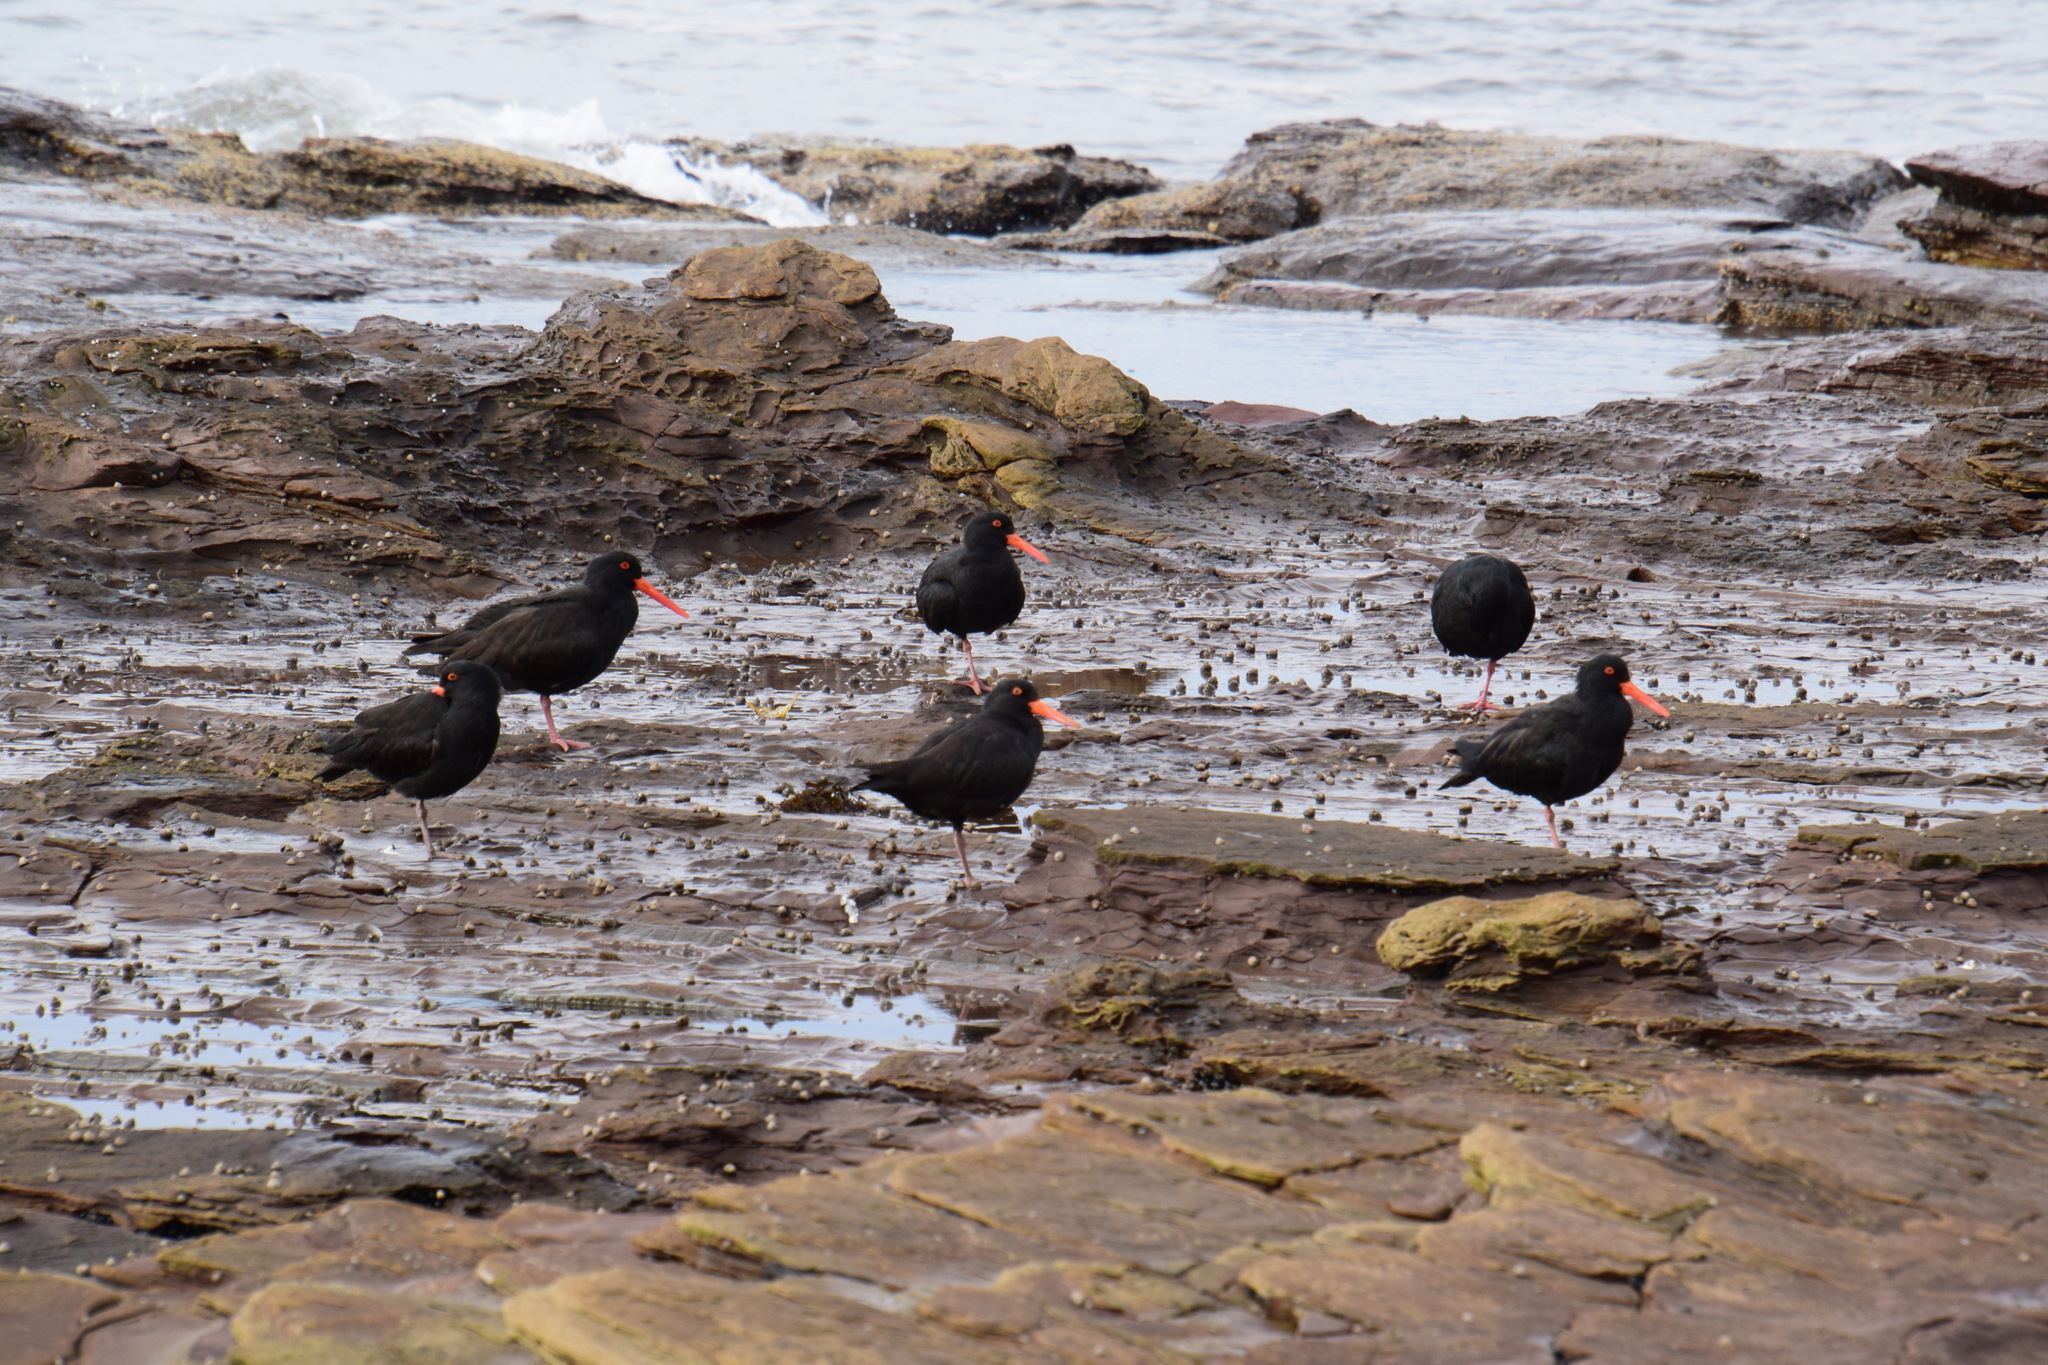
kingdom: Animalia
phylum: Chordata
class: Aves
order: Charadriiformes
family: Haematopodidae
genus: Haematopus
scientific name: Haematopus fuliginosus
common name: Sooty oystercatcher
